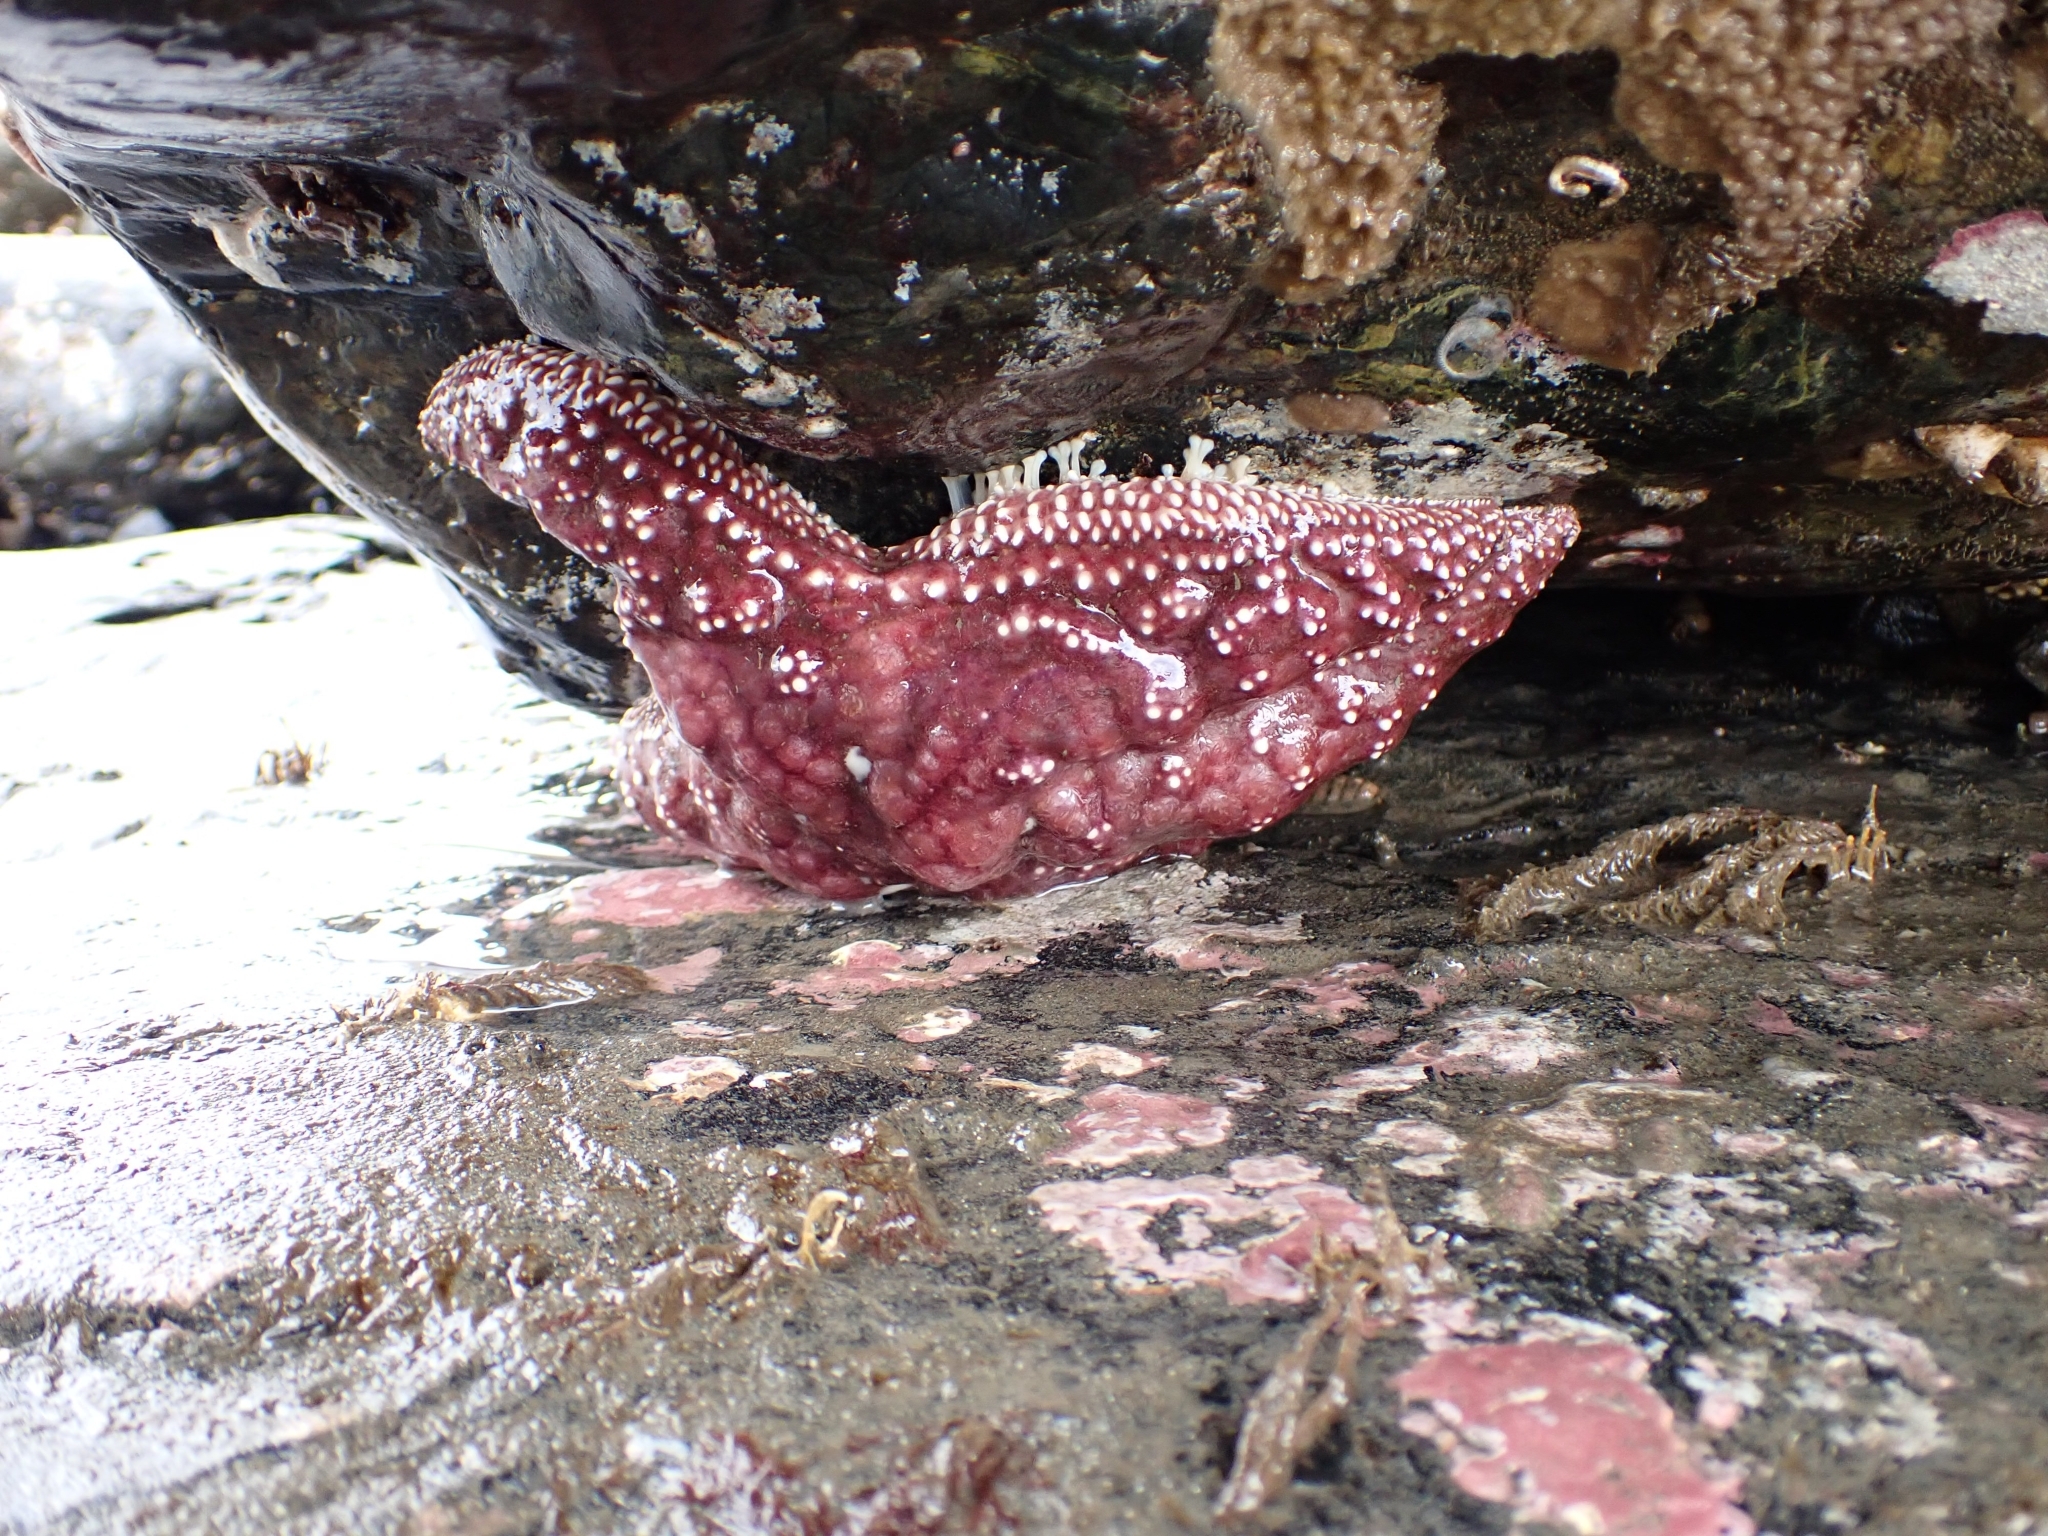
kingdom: Animalia
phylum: Echinodermata
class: Asteroidea
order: Forcipulatida
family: Asteriidae
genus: Pisaster
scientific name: Pisaster ochraceus
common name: Ochre stars
